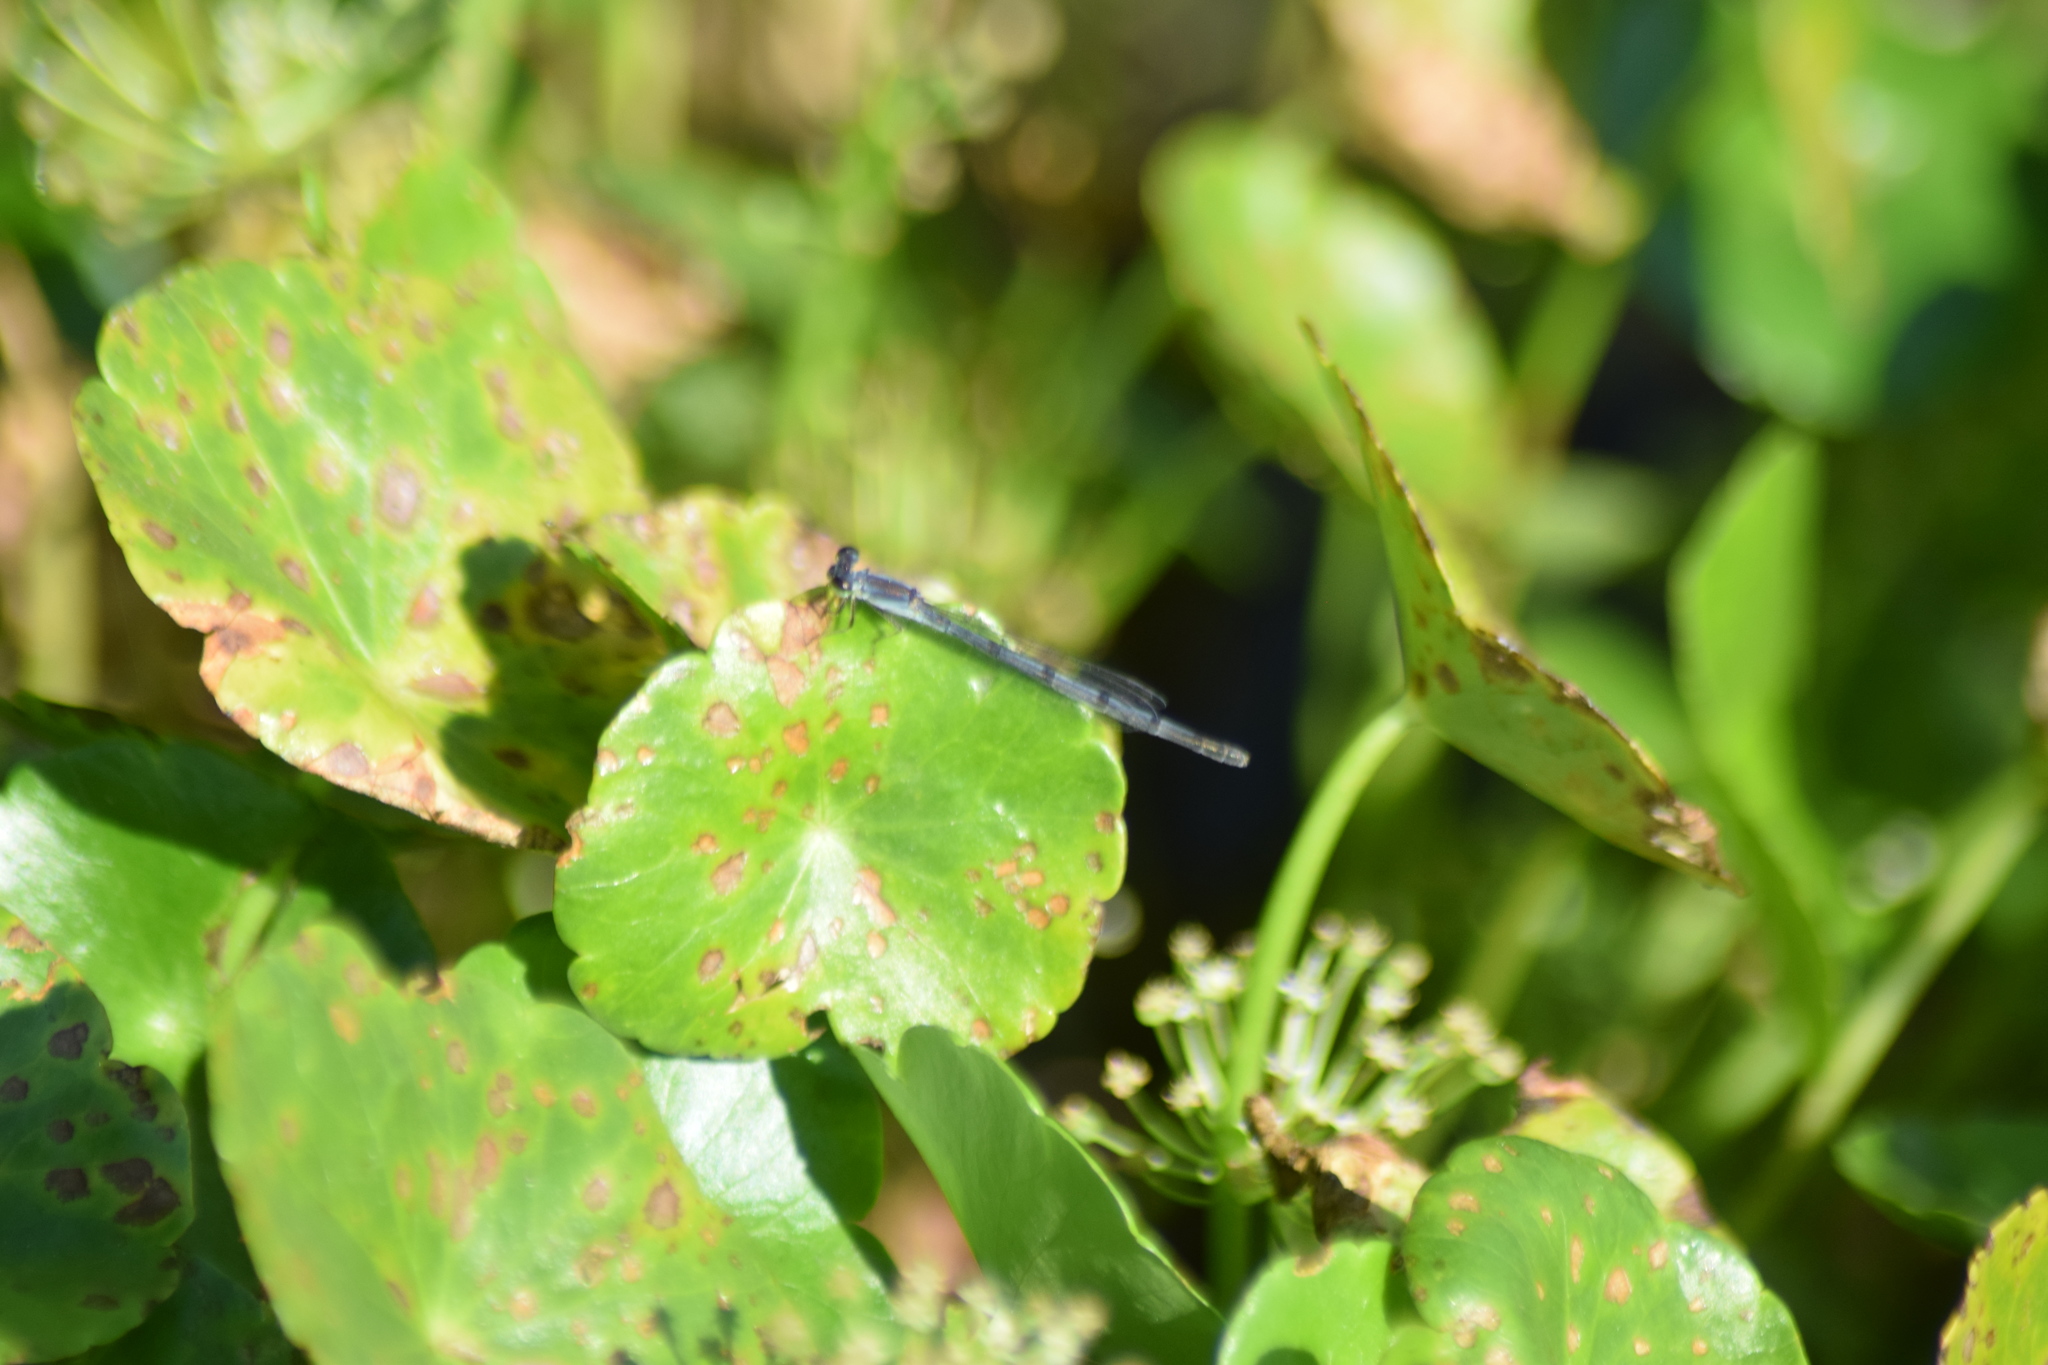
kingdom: Animalia
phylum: Arthropoda
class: Insecta
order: Odonata
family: Coenagrionidae
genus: Ischnura
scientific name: Ischnura posita
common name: Fragile forktail
